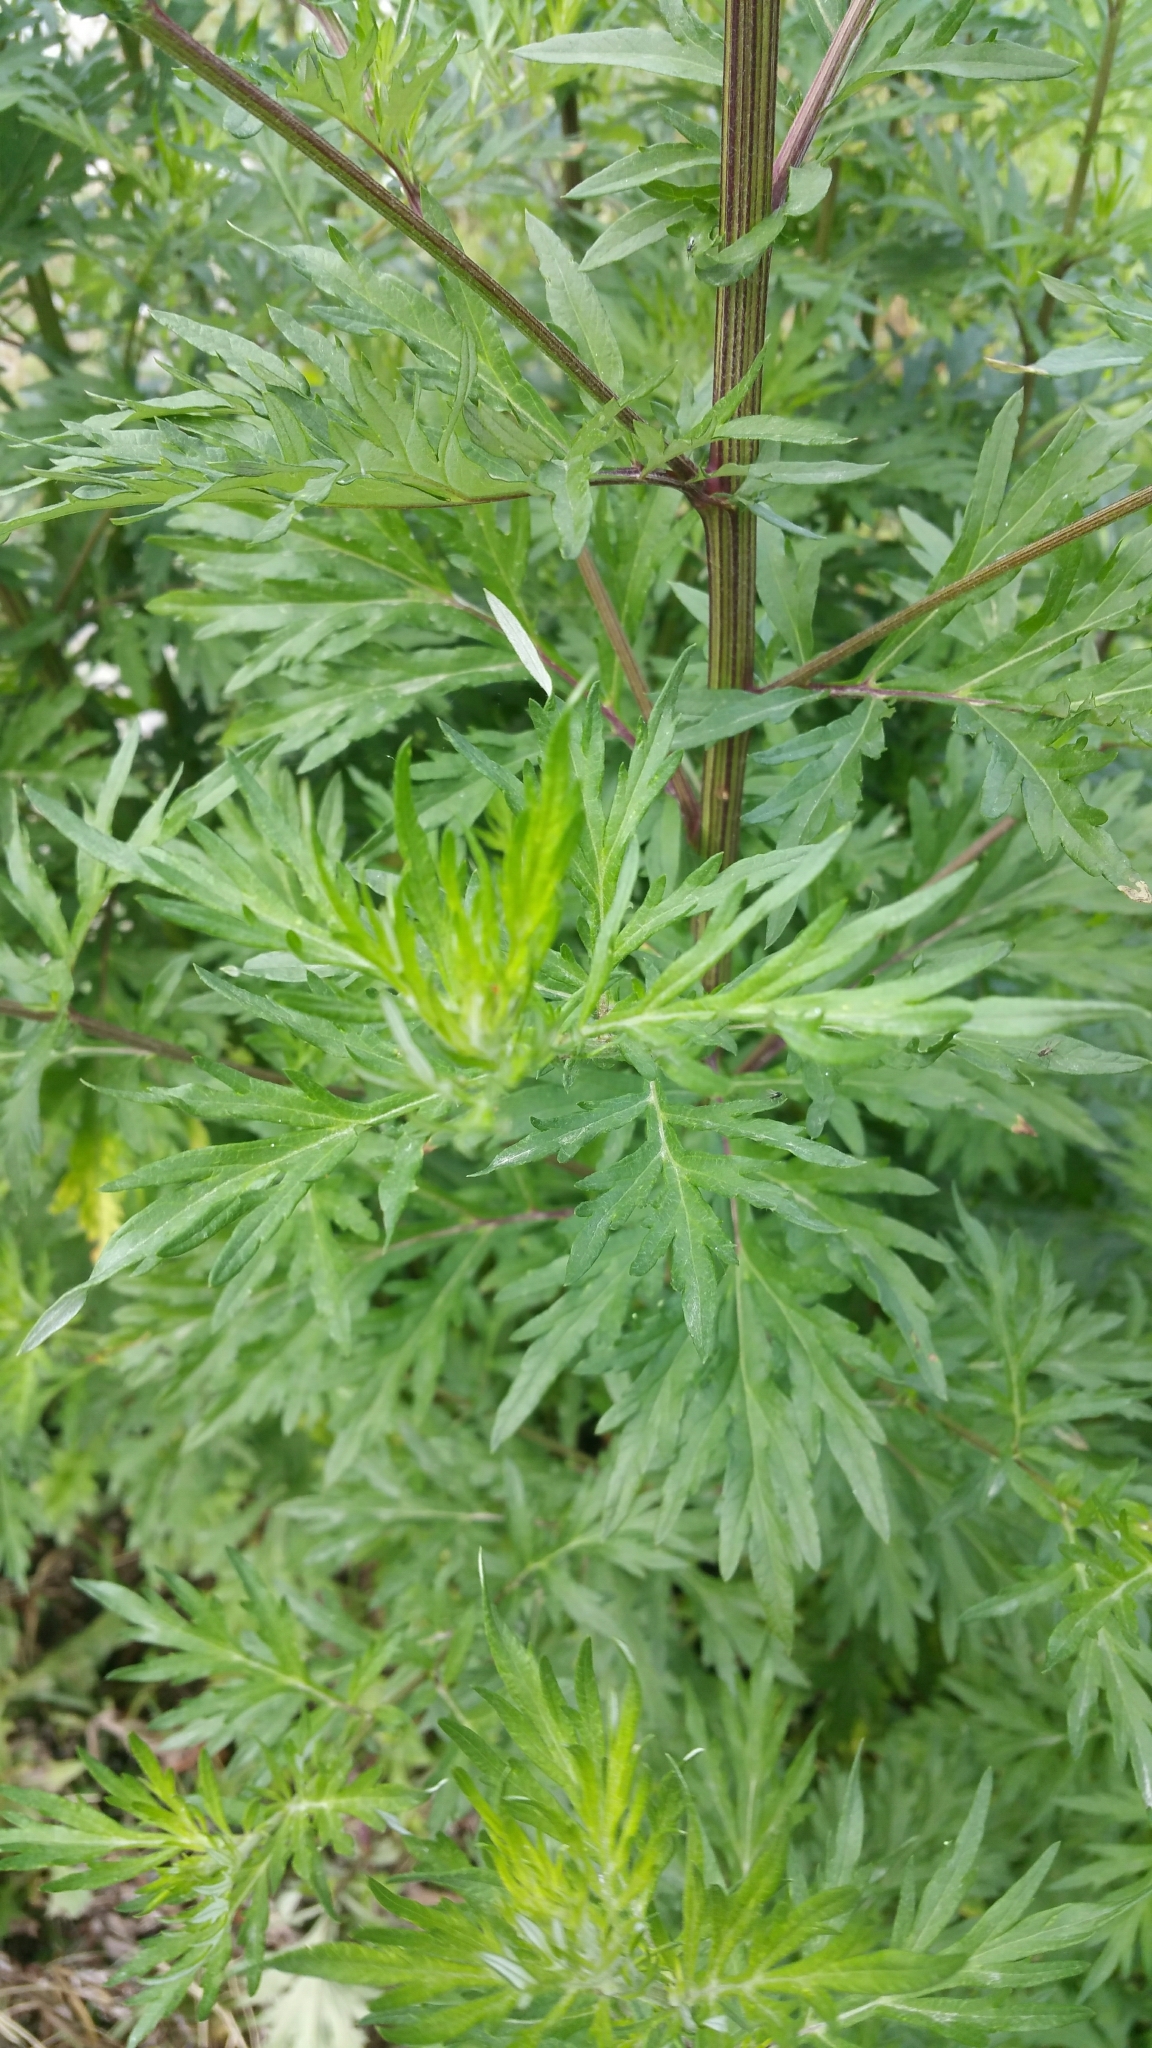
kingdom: Plantae
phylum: Tracheophyta
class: Magnoliopsida
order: Asterales
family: Asteraceae
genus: Artemisia
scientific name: Artemisia vulgaris
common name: Mugwort
